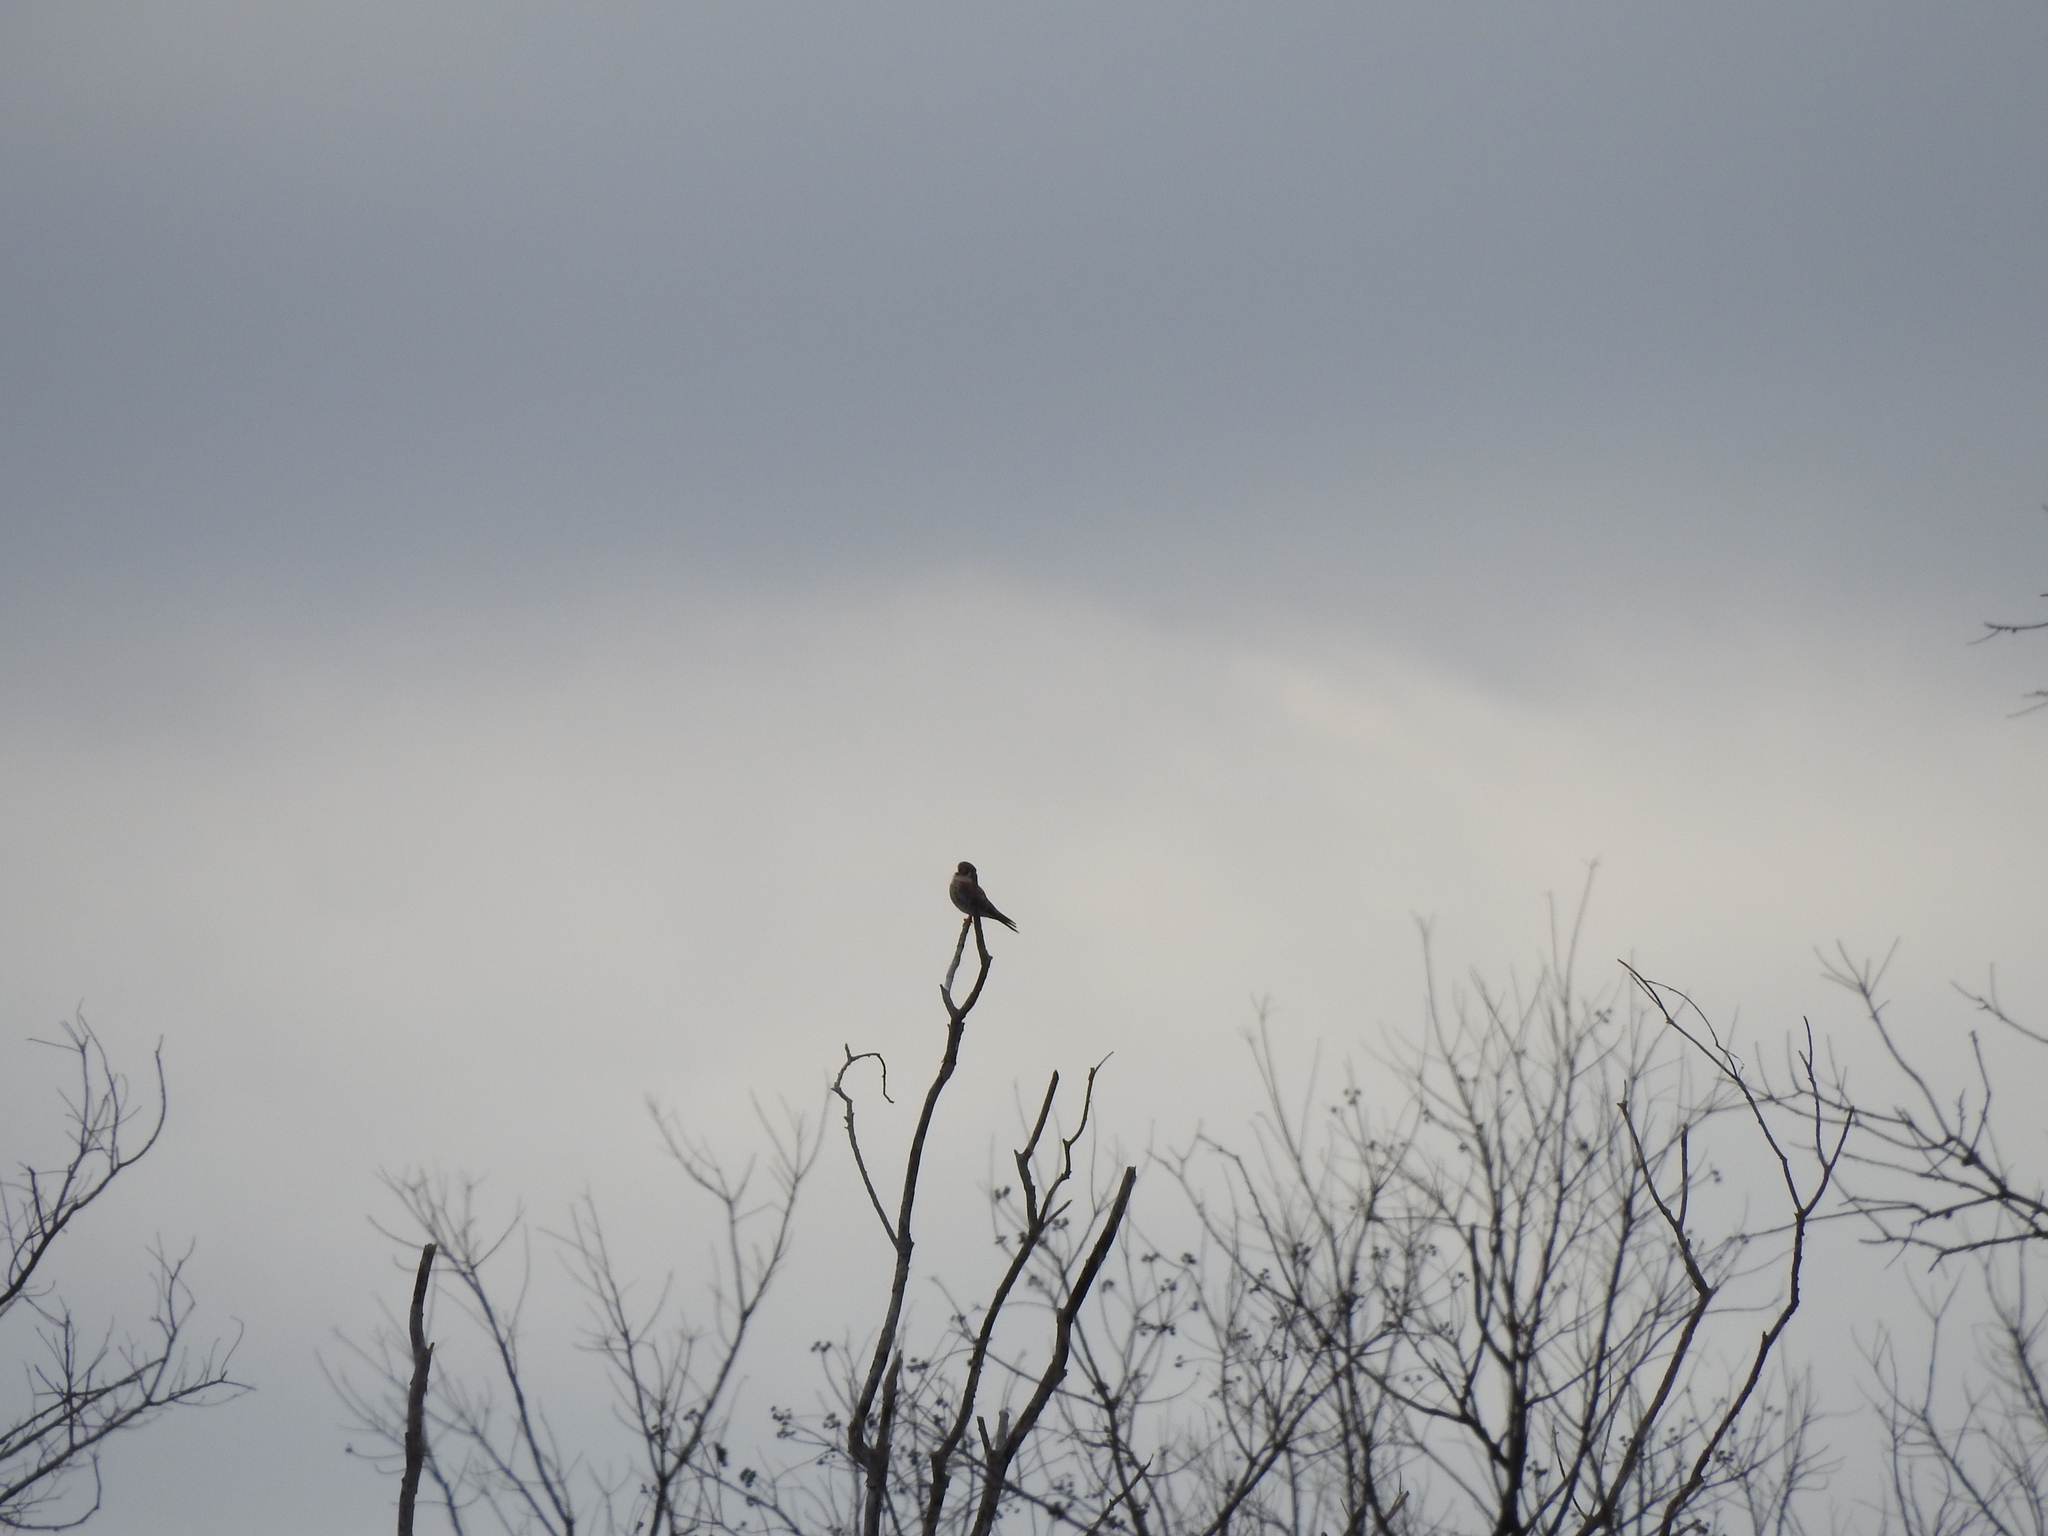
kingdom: Animalia
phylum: Chordata
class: Aves
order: Falconiformes
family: Falconidae
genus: Falco
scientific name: Falco sparverius
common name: American kestrel
